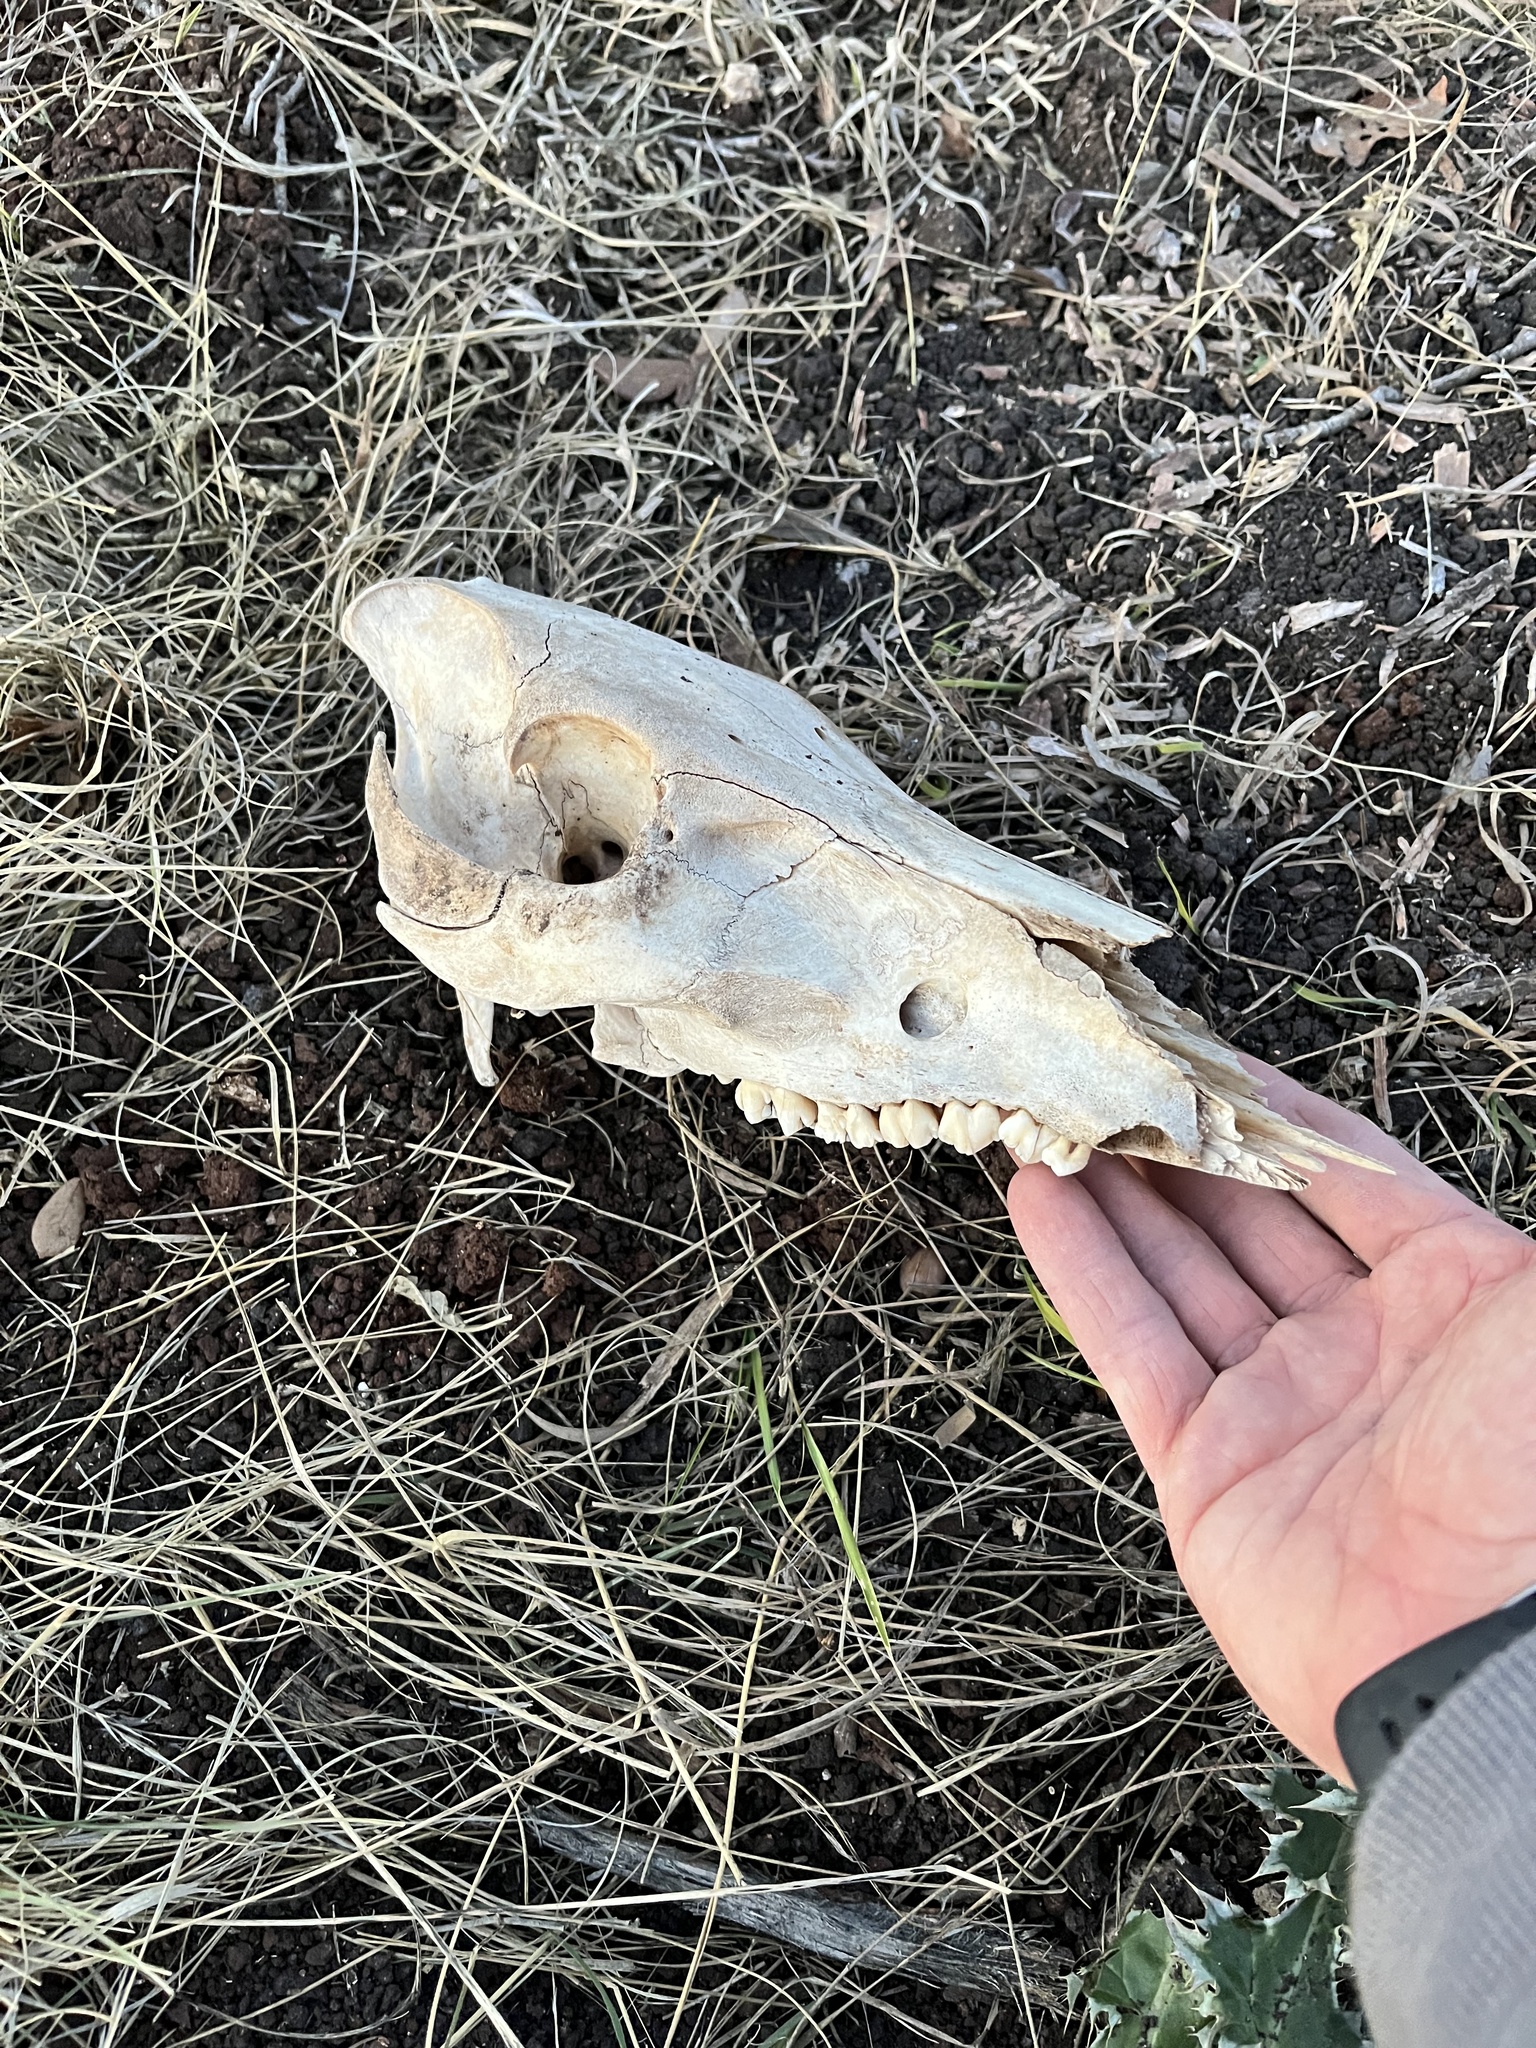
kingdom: Animalia
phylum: Chordata
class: Mammalia
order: Artiodactyla
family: Suidae
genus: Sus
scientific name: Sus scrofa
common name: Wild boar
